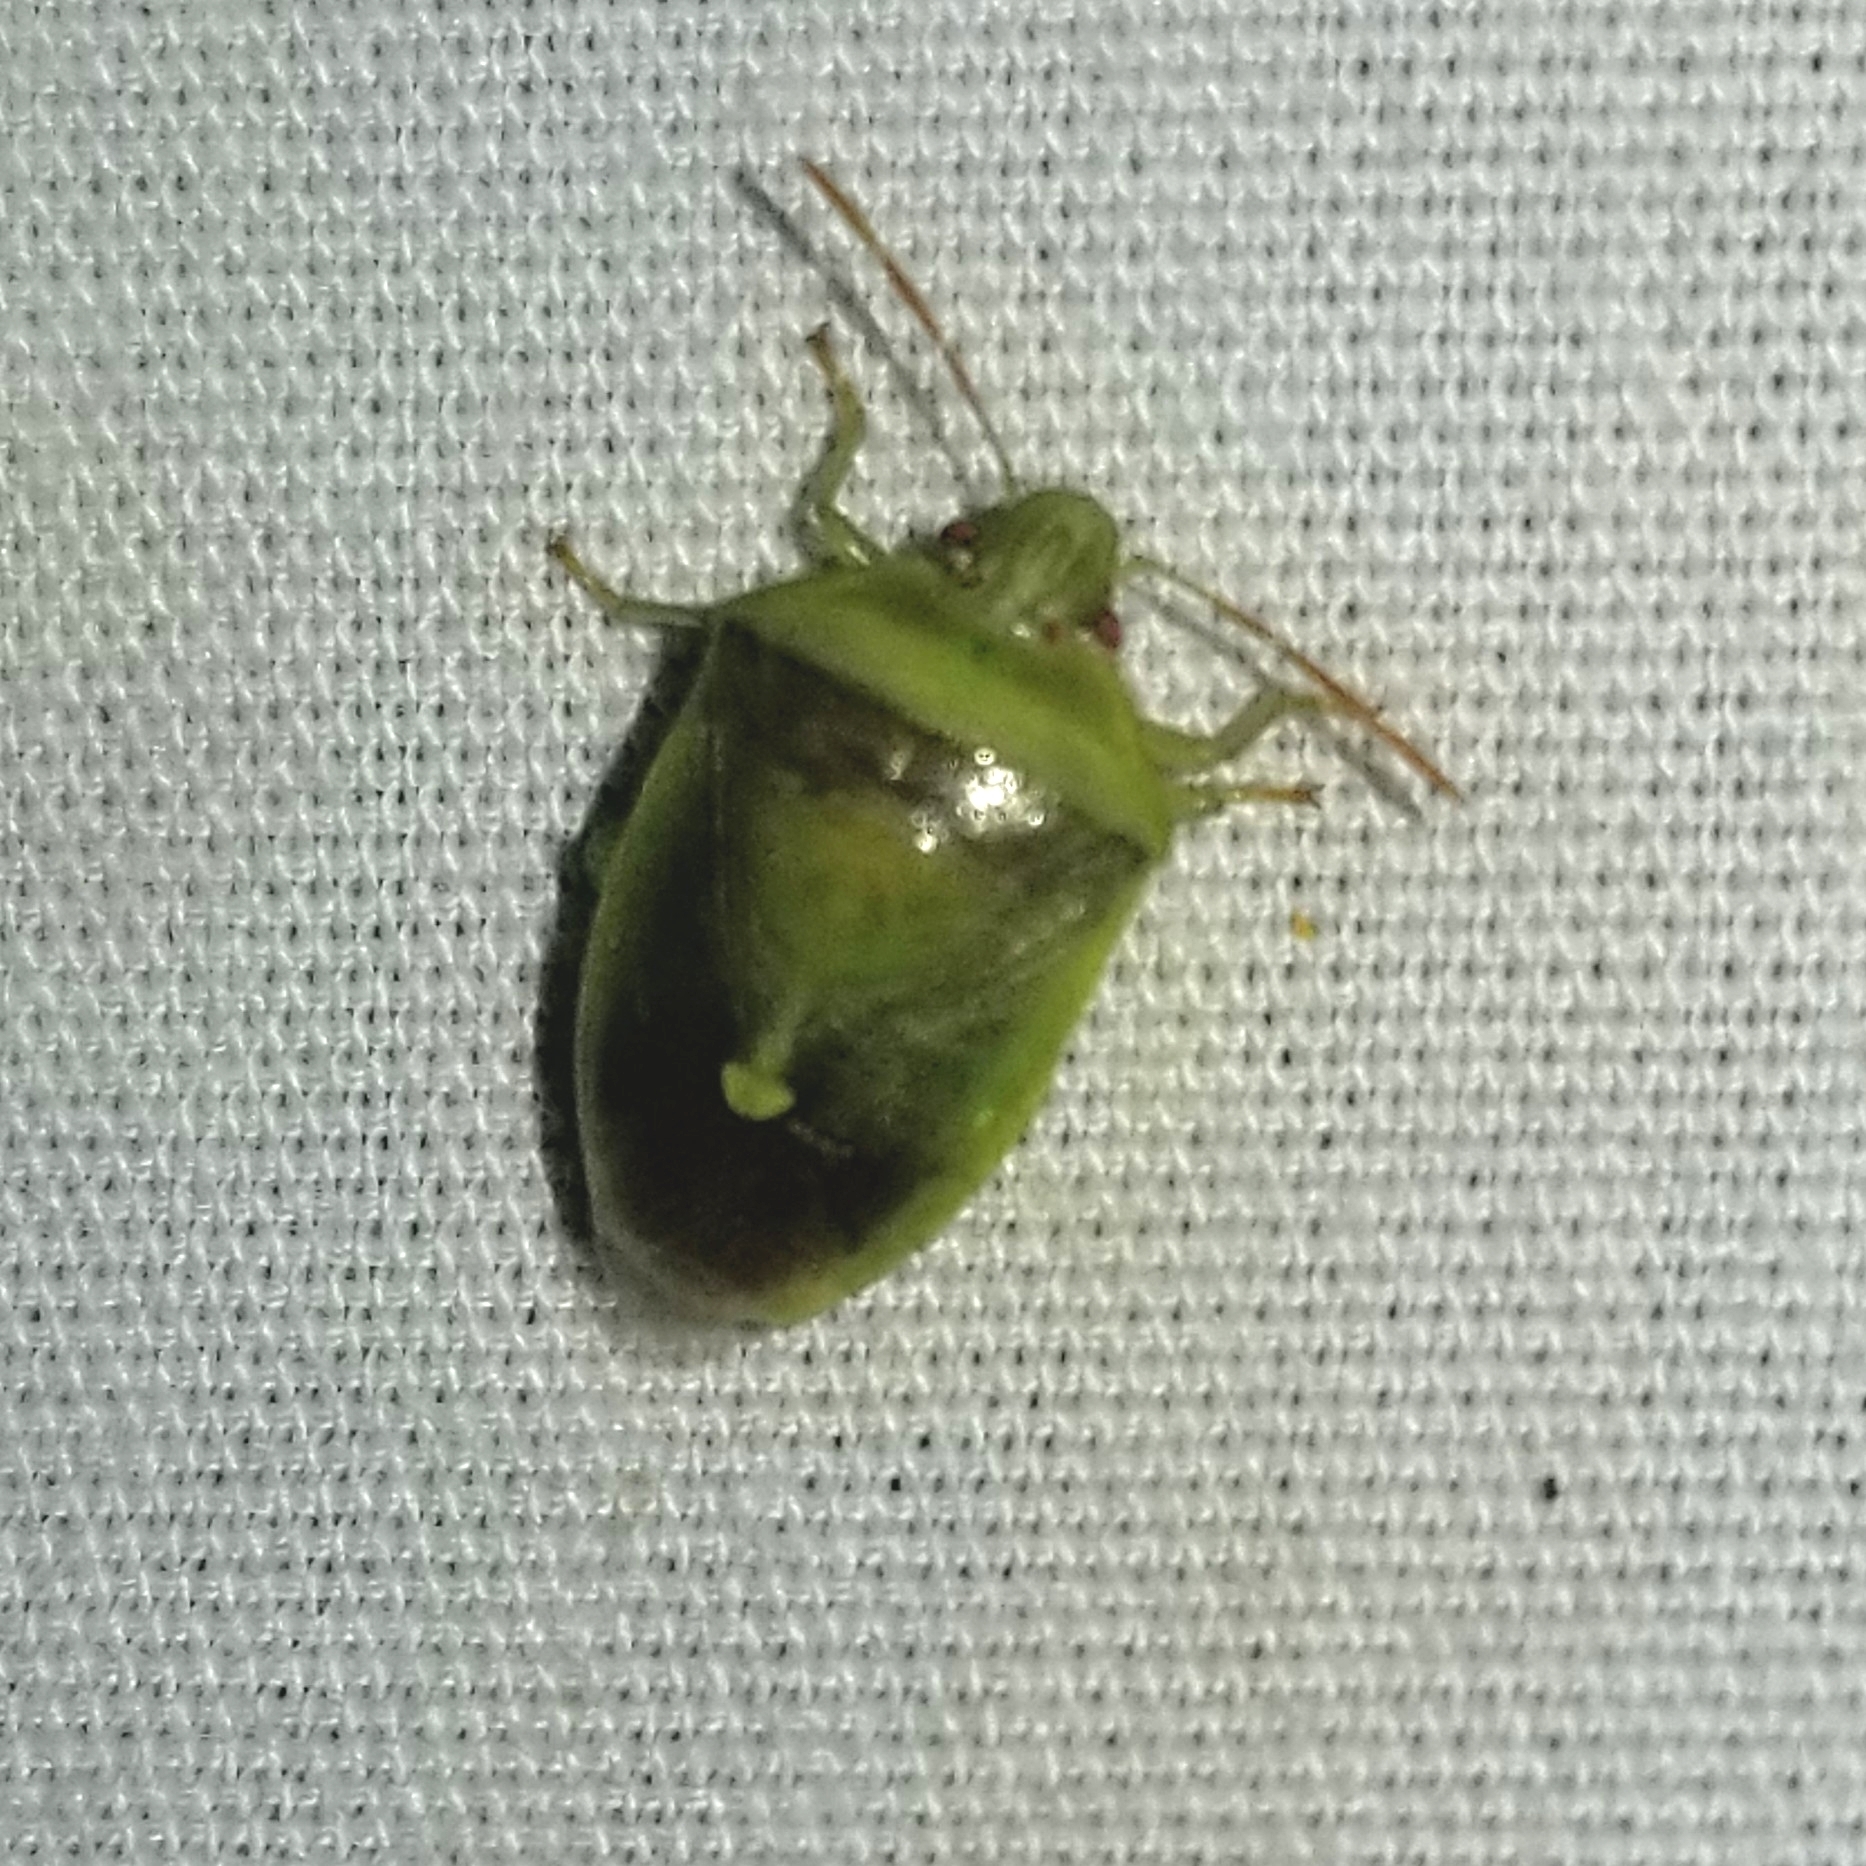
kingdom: Animalia
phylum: Arthropoda
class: Insecta
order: Hemiptera
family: Pentatomidae
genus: Banasa
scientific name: Banasa dimidiata
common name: Green burgundy stink bug
